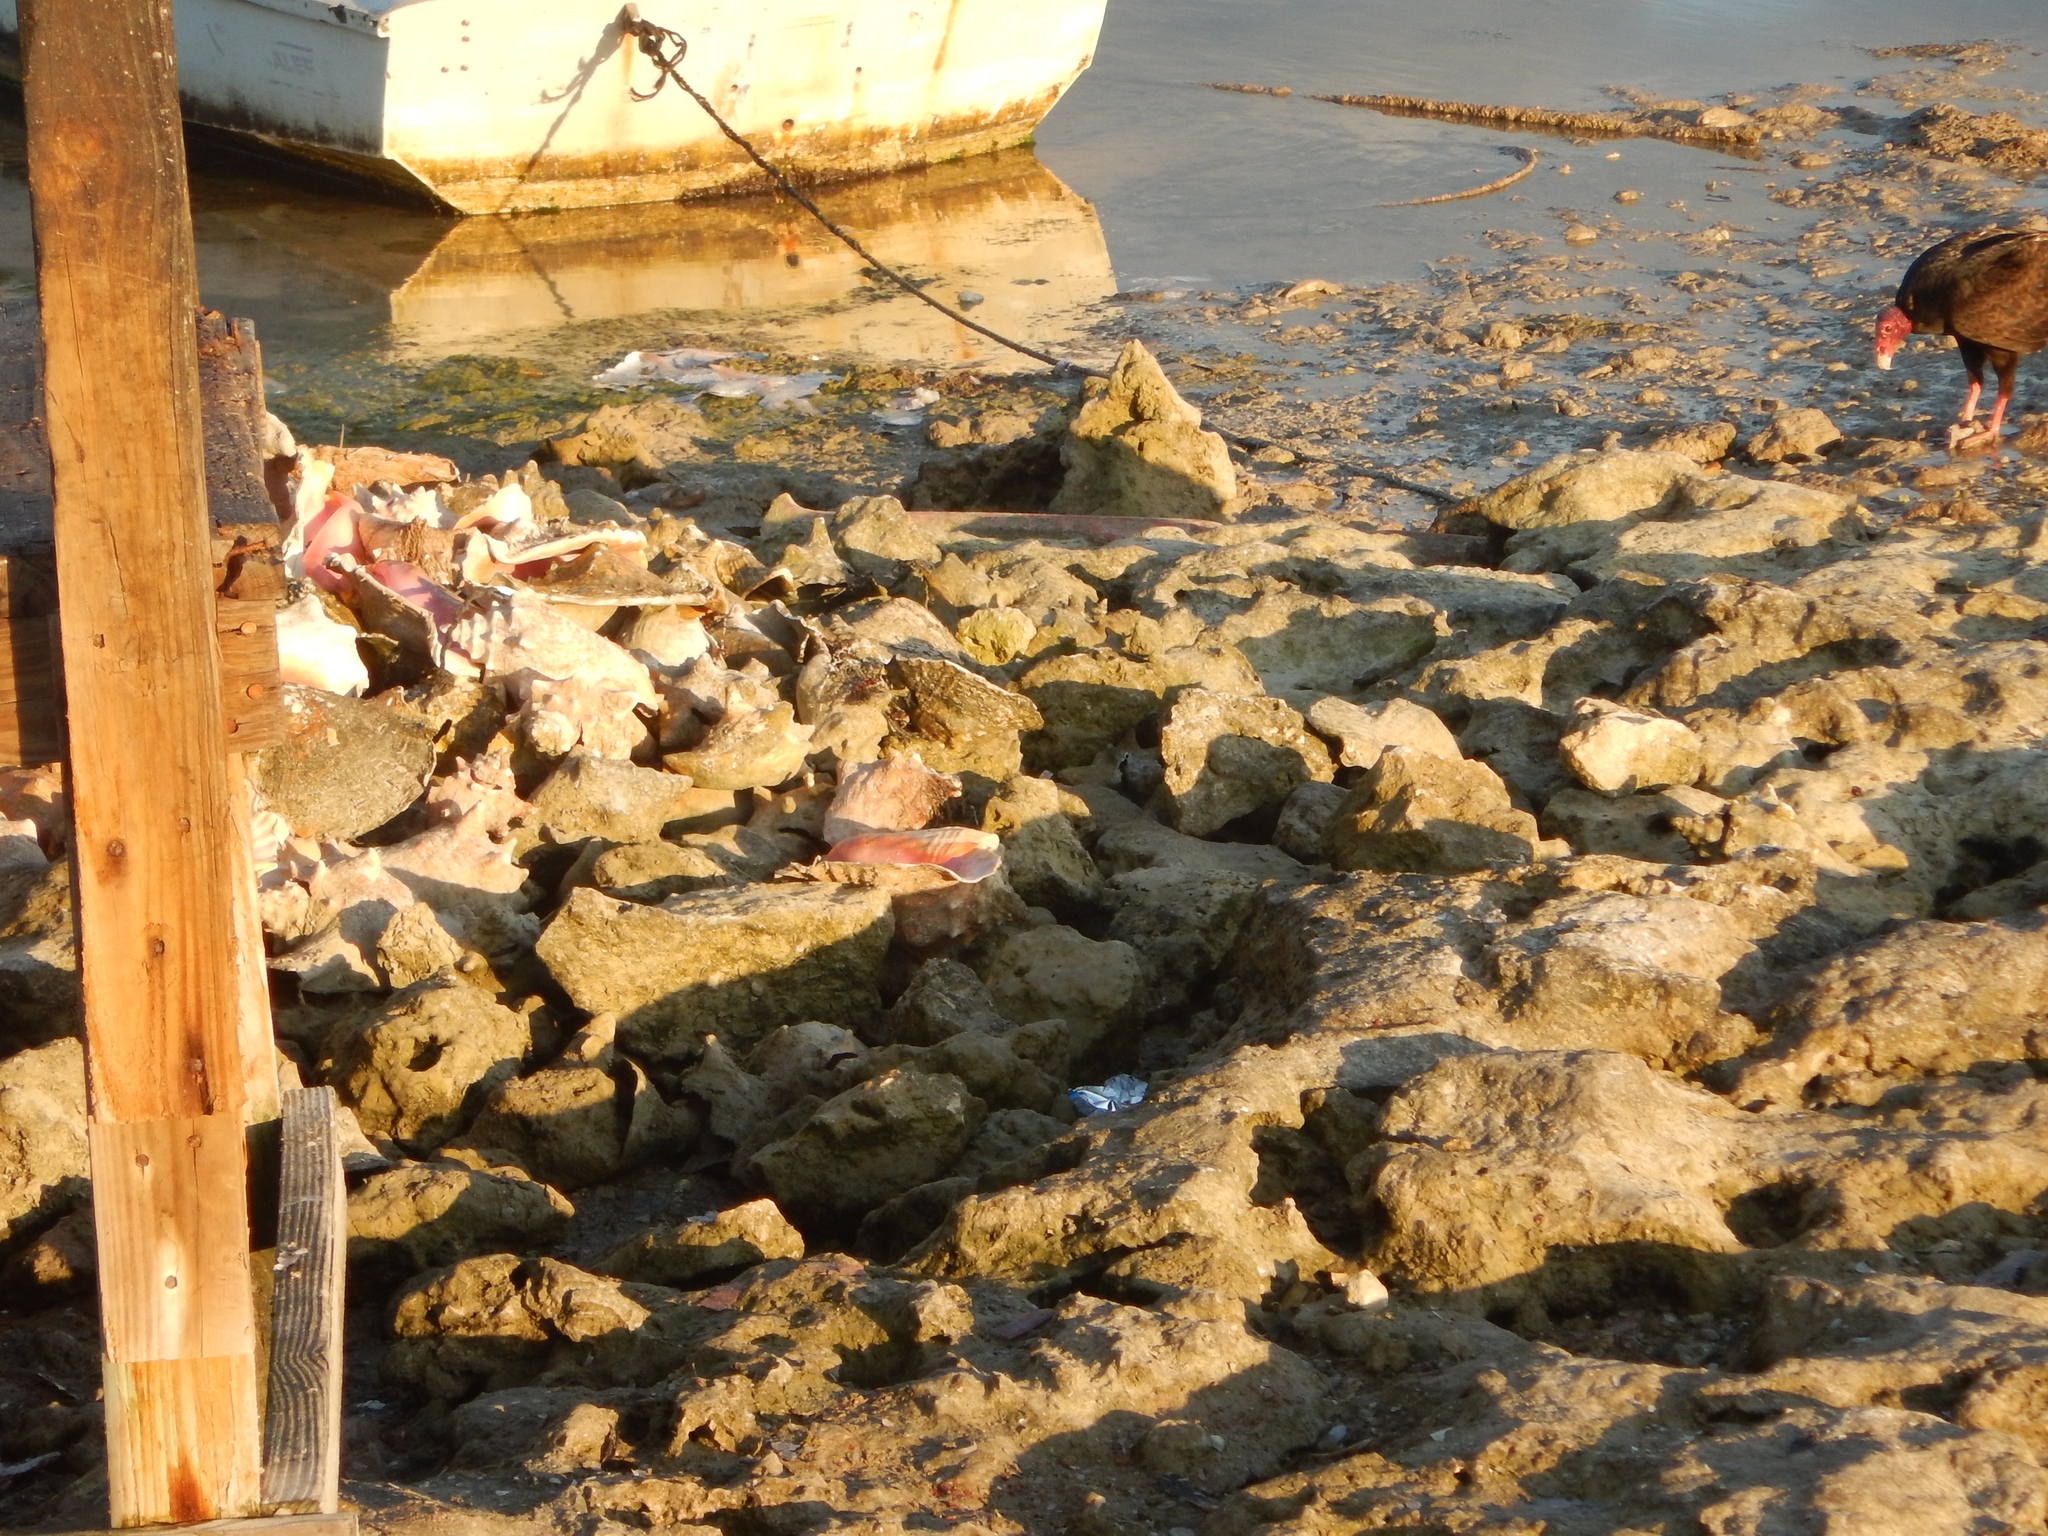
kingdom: Animalia
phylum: Chordata
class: Aves
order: Accipitriformes
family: Cathartidae
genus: Cathartes
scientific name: Cathartes aura
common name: Turkey vulture
